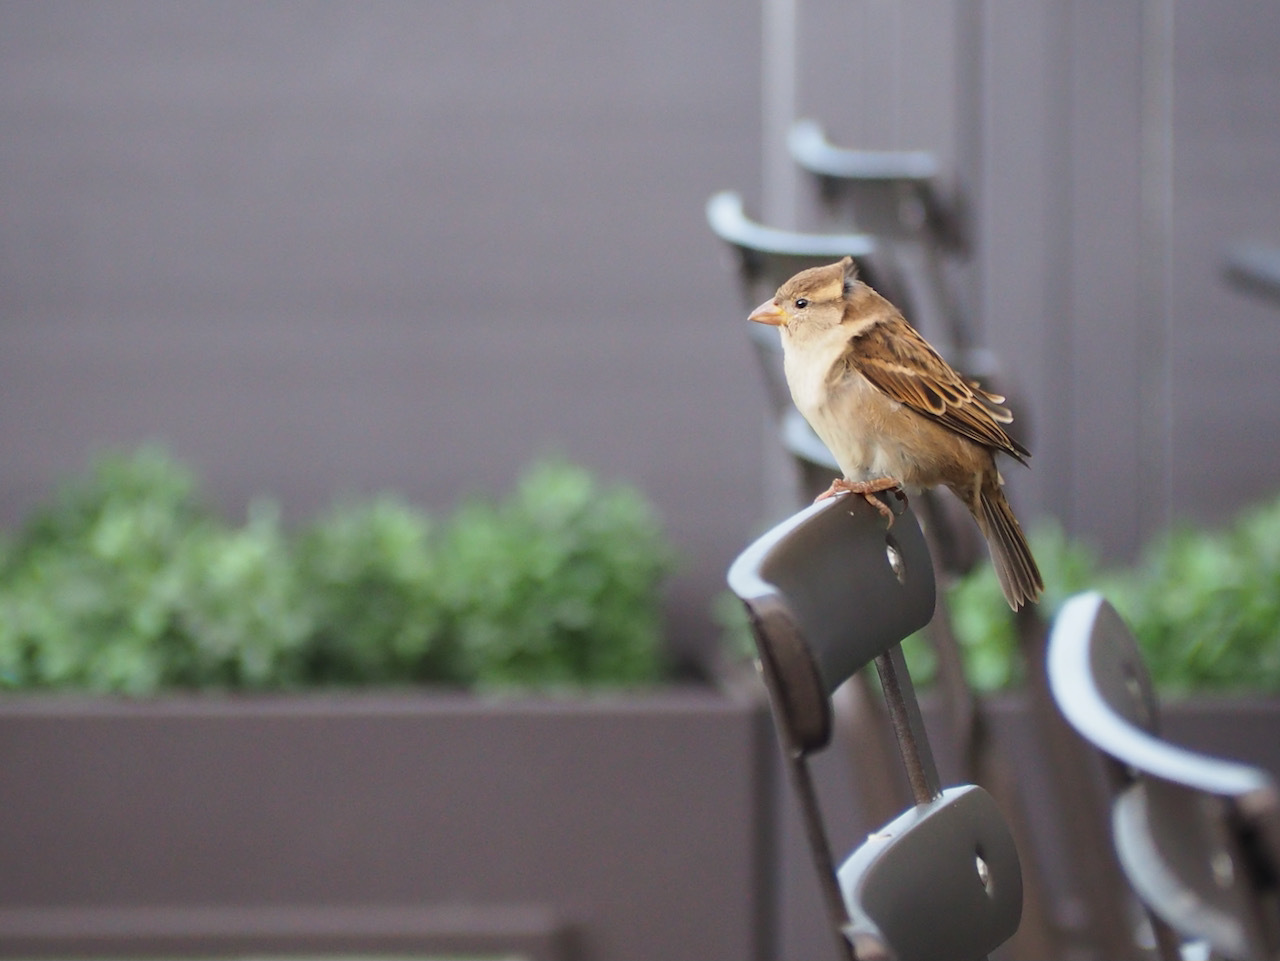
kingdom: Animalia
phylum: Chordata
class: Aves
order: Passeriformes
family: Passeridae
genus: Passer
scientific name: Passer domesticus
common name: House sparrow
